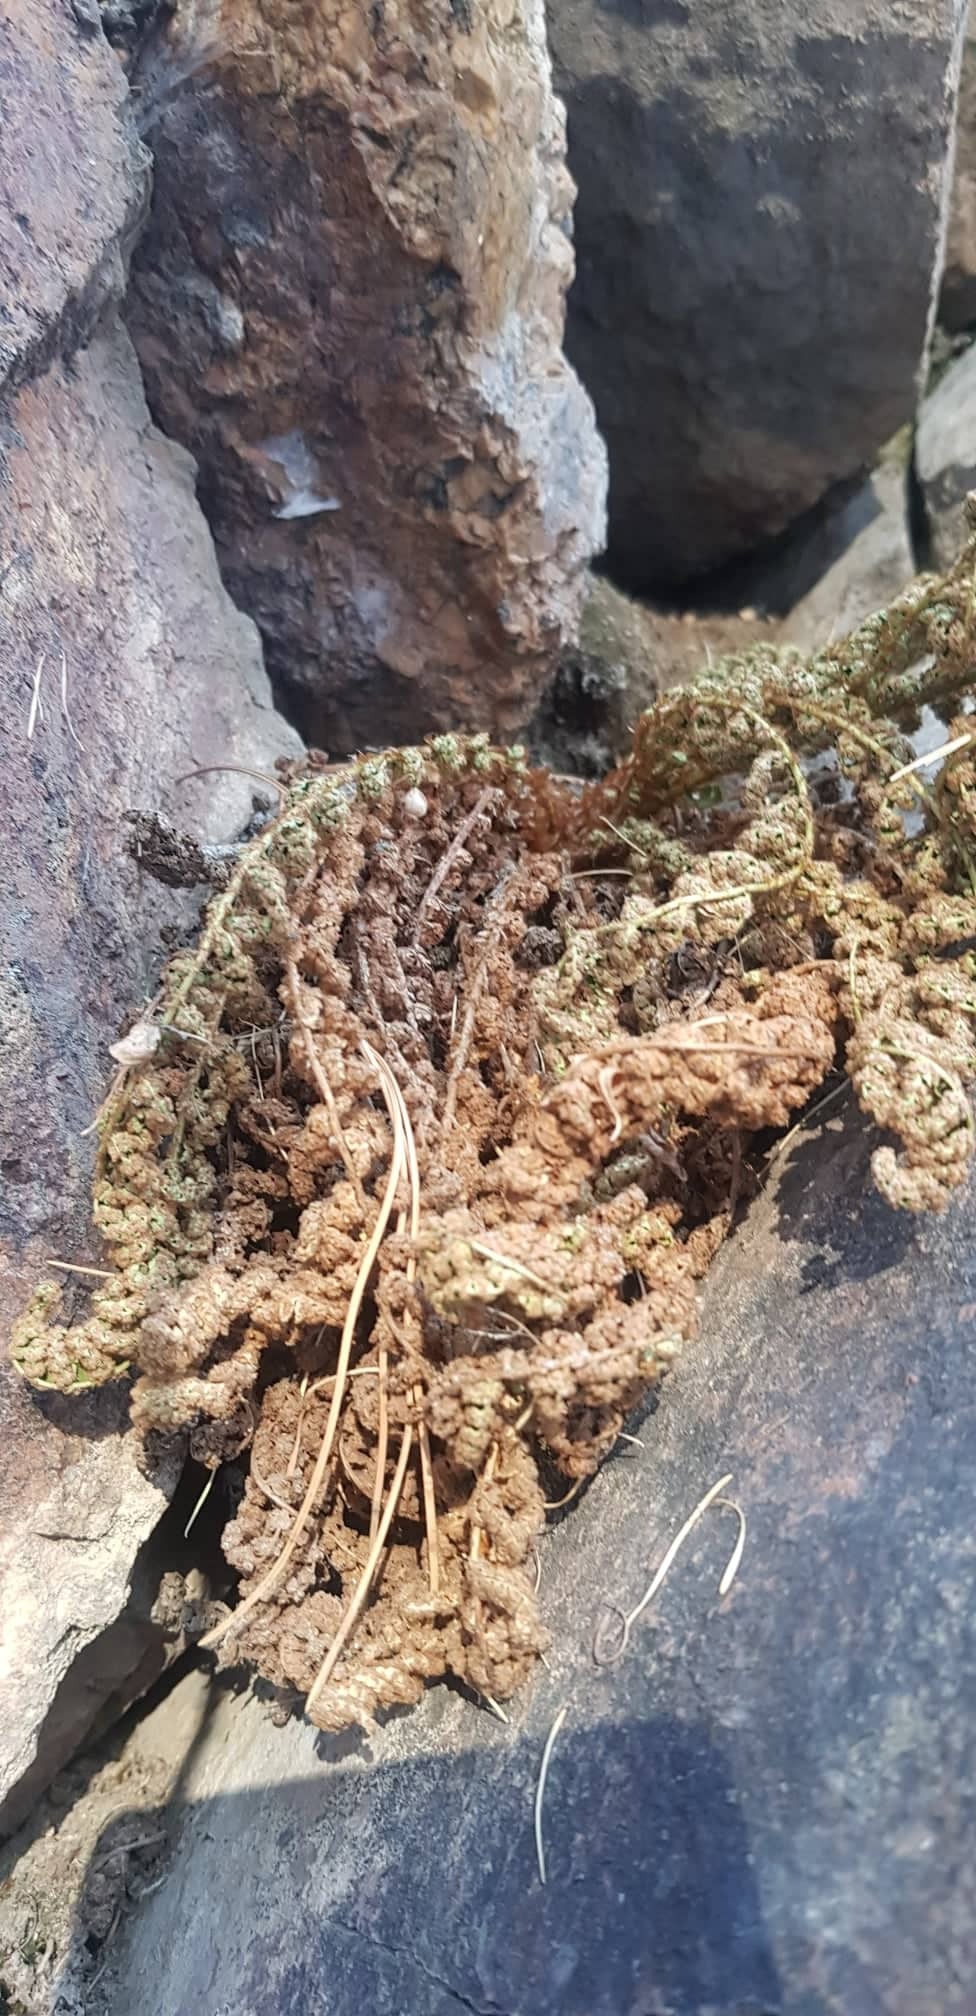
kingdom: Plantae
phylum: Tracheophyta
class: Polypodiopsida
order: Polypodiales
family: Dryopteridaceae
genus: Dryopteris
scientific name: Dryopteris fragrans
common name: Fragrant wood fern
